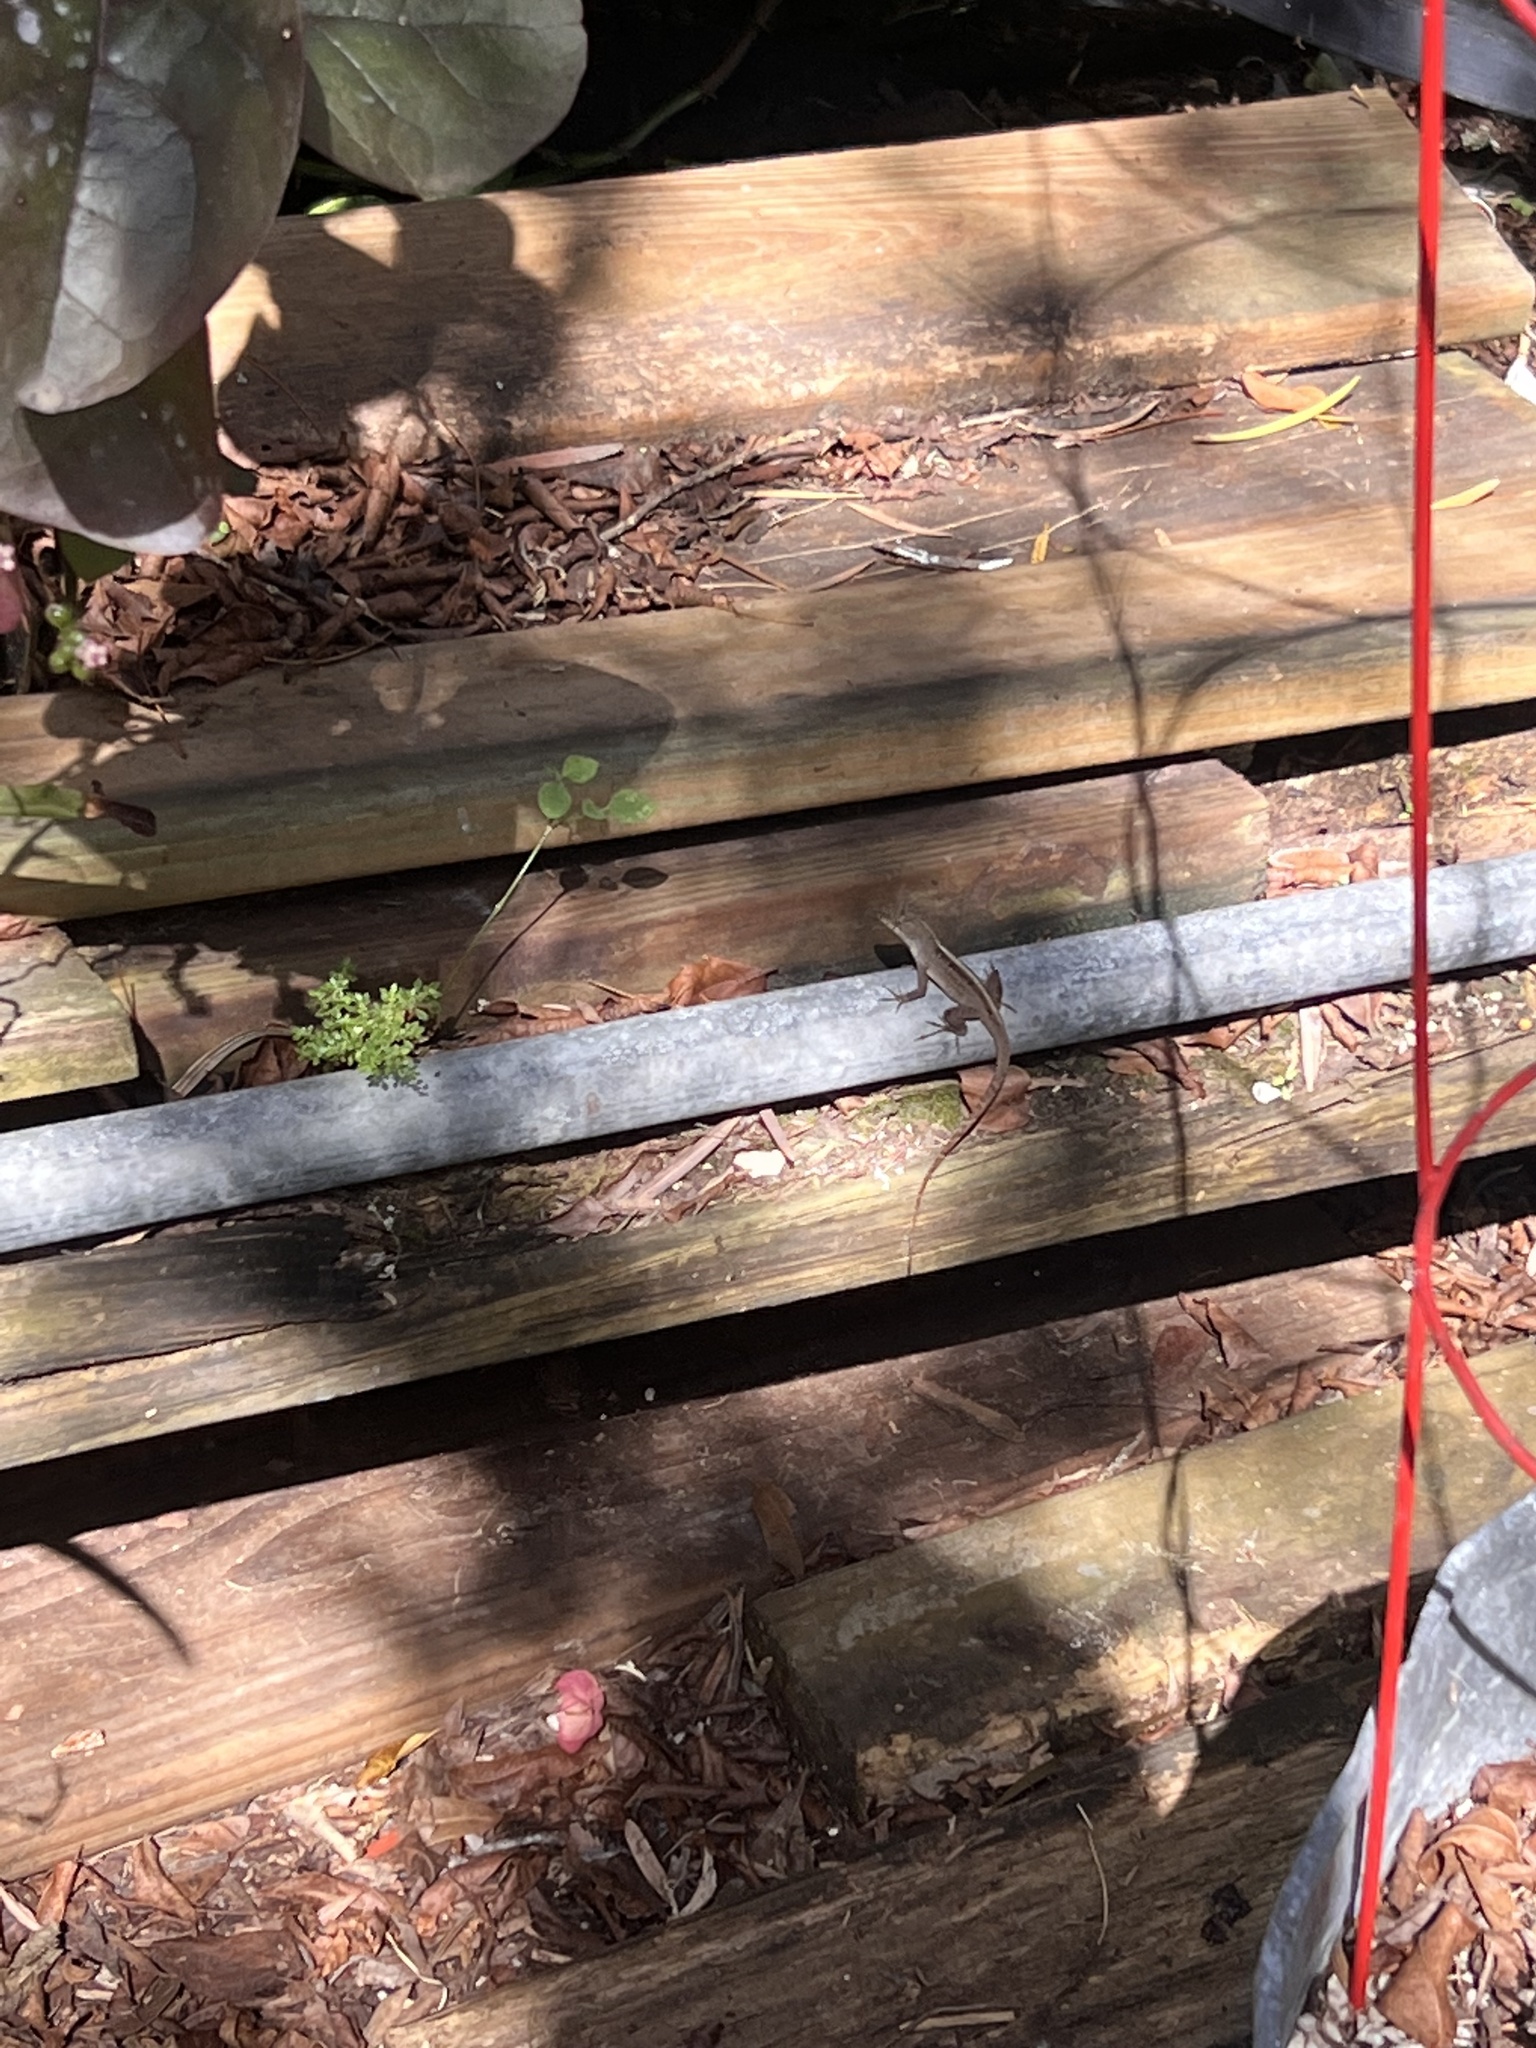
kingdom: Animalia
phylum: Chordata
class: Squamata
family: Dactyloidae
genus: Anolis
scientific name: Anolis sagrei
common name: Brown anole
